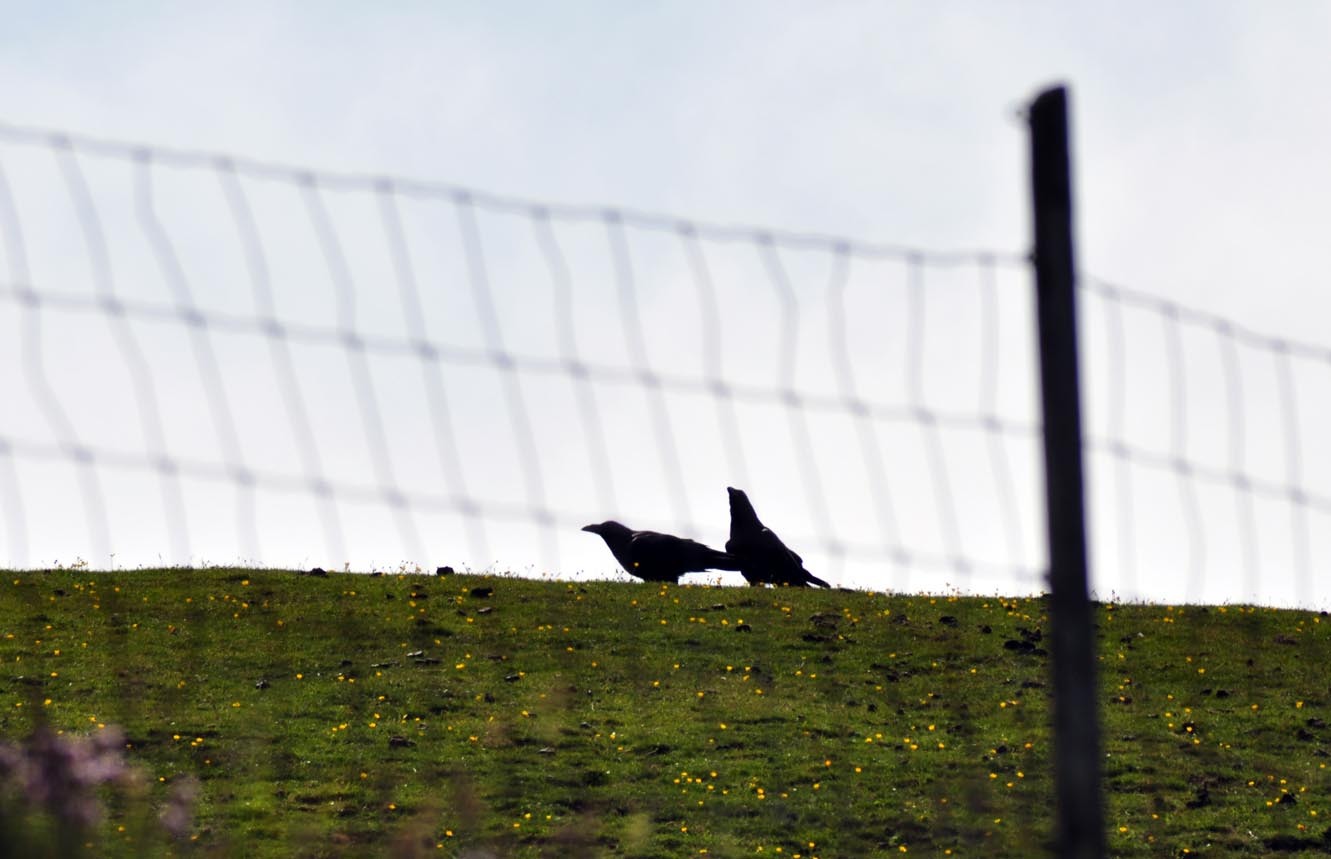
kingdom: Animalia
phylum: Chordata
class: Aves
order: Passeriformes
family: Corvidae
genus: Corvus
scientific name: Corvus corax
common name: Common raven
